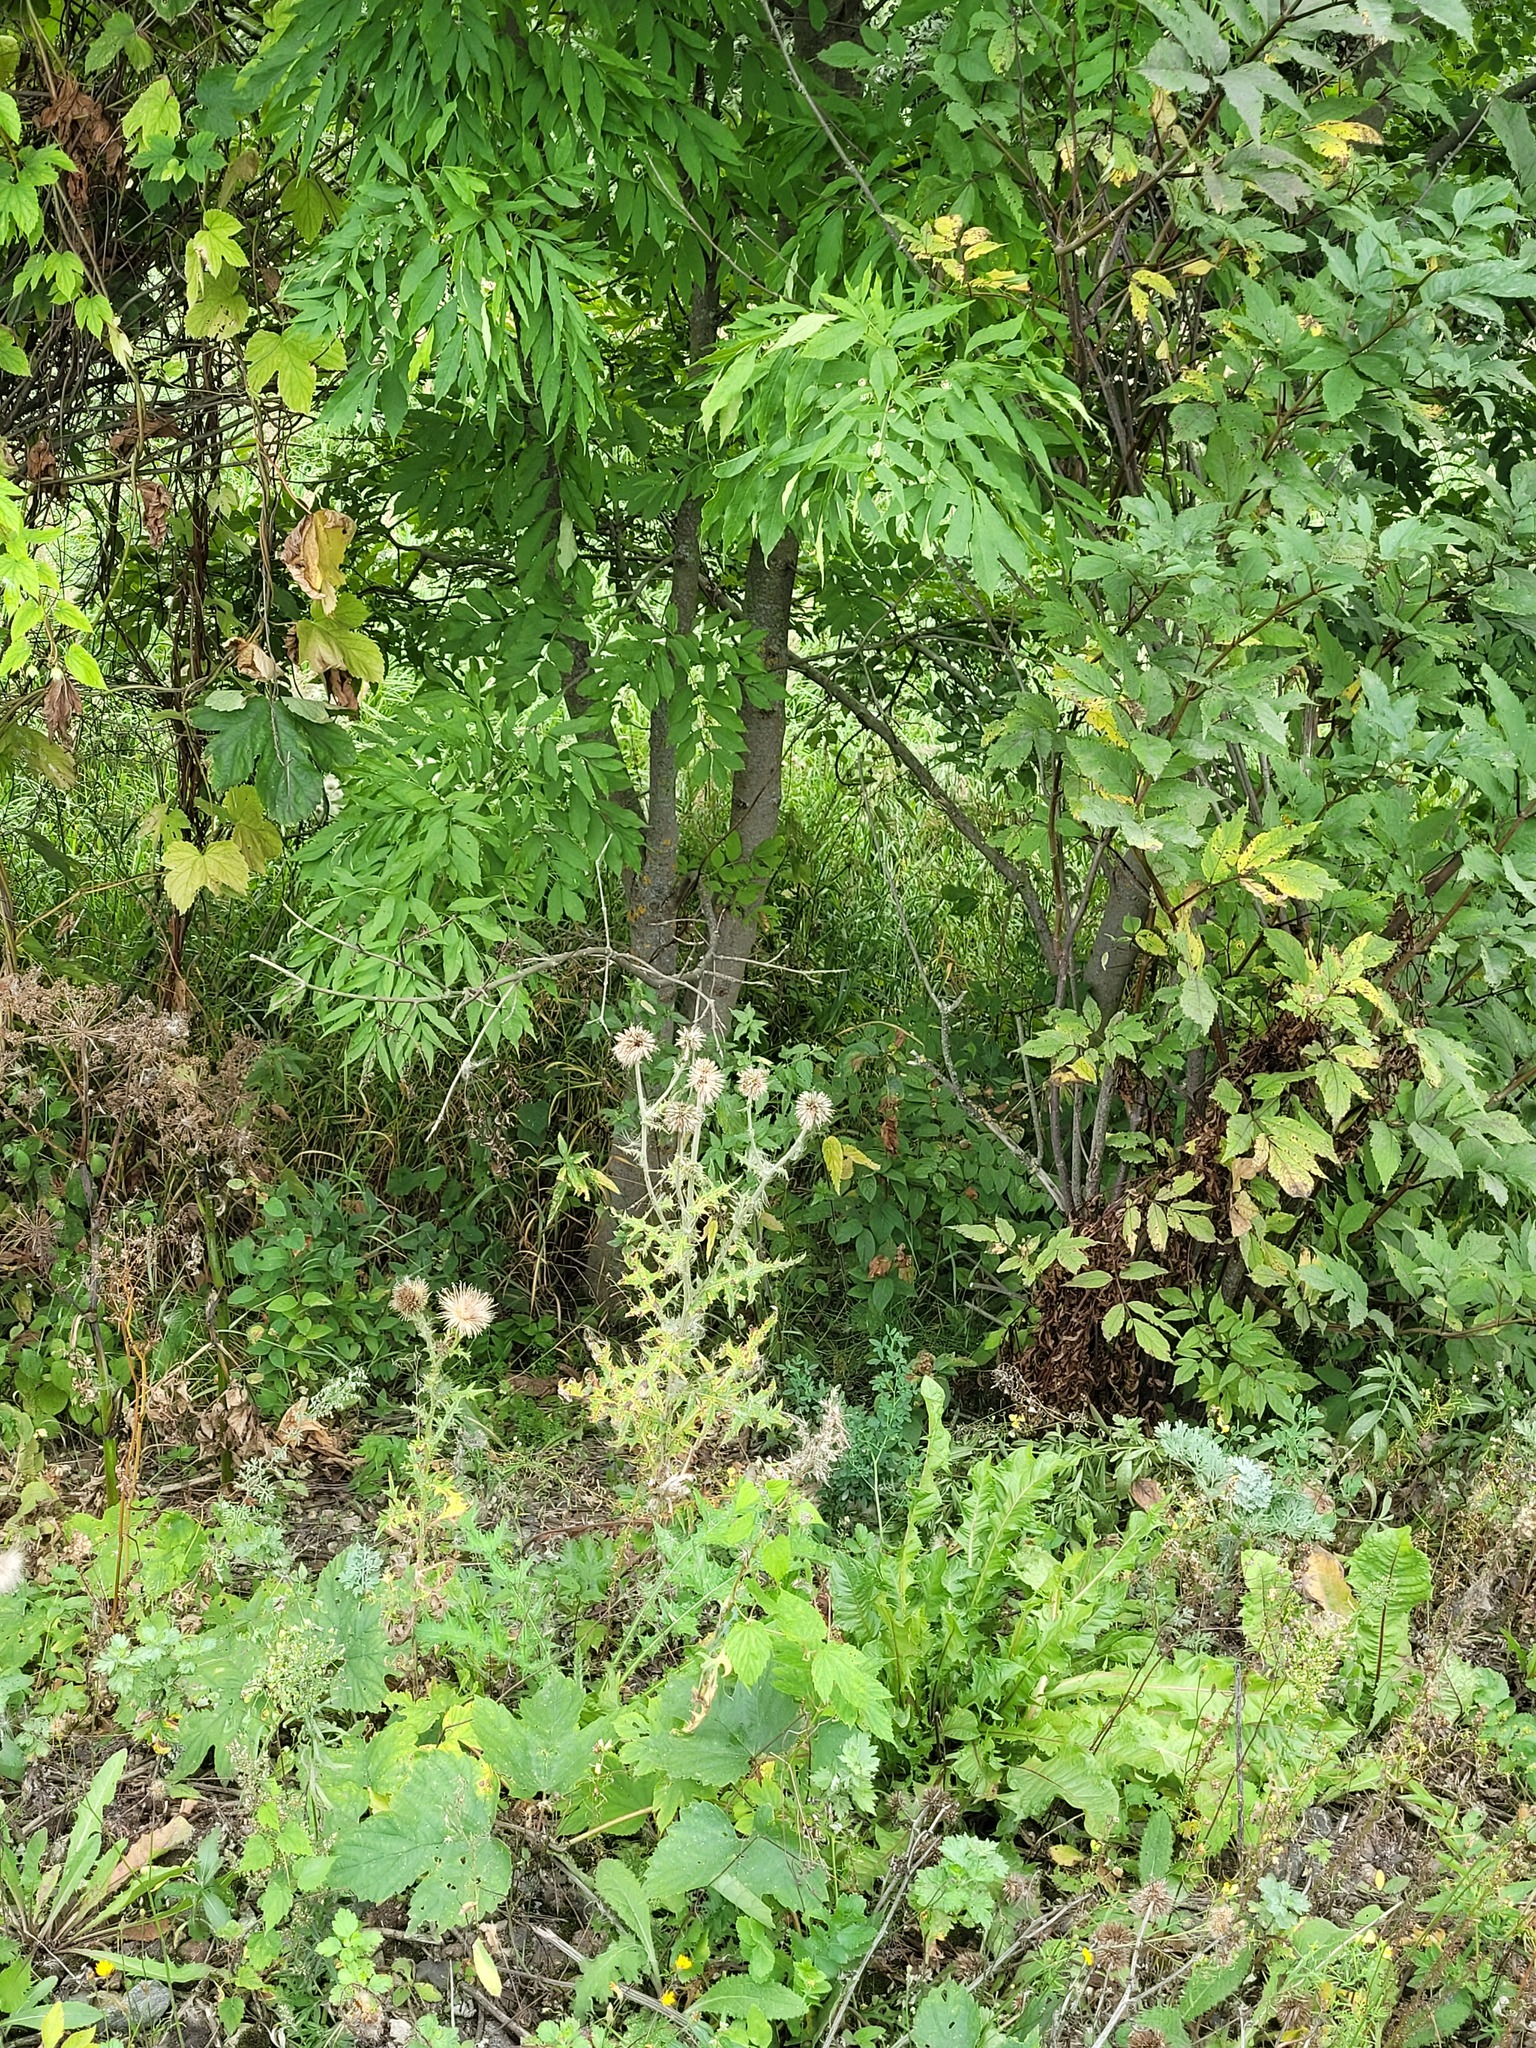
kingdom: Plantae
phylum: Tracheophyta
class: Magnoliopsida
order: Asterales
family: Asteraceae
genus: Echinops
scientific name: Echinops sphaerocephalus
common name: Glandular globe-thistle
